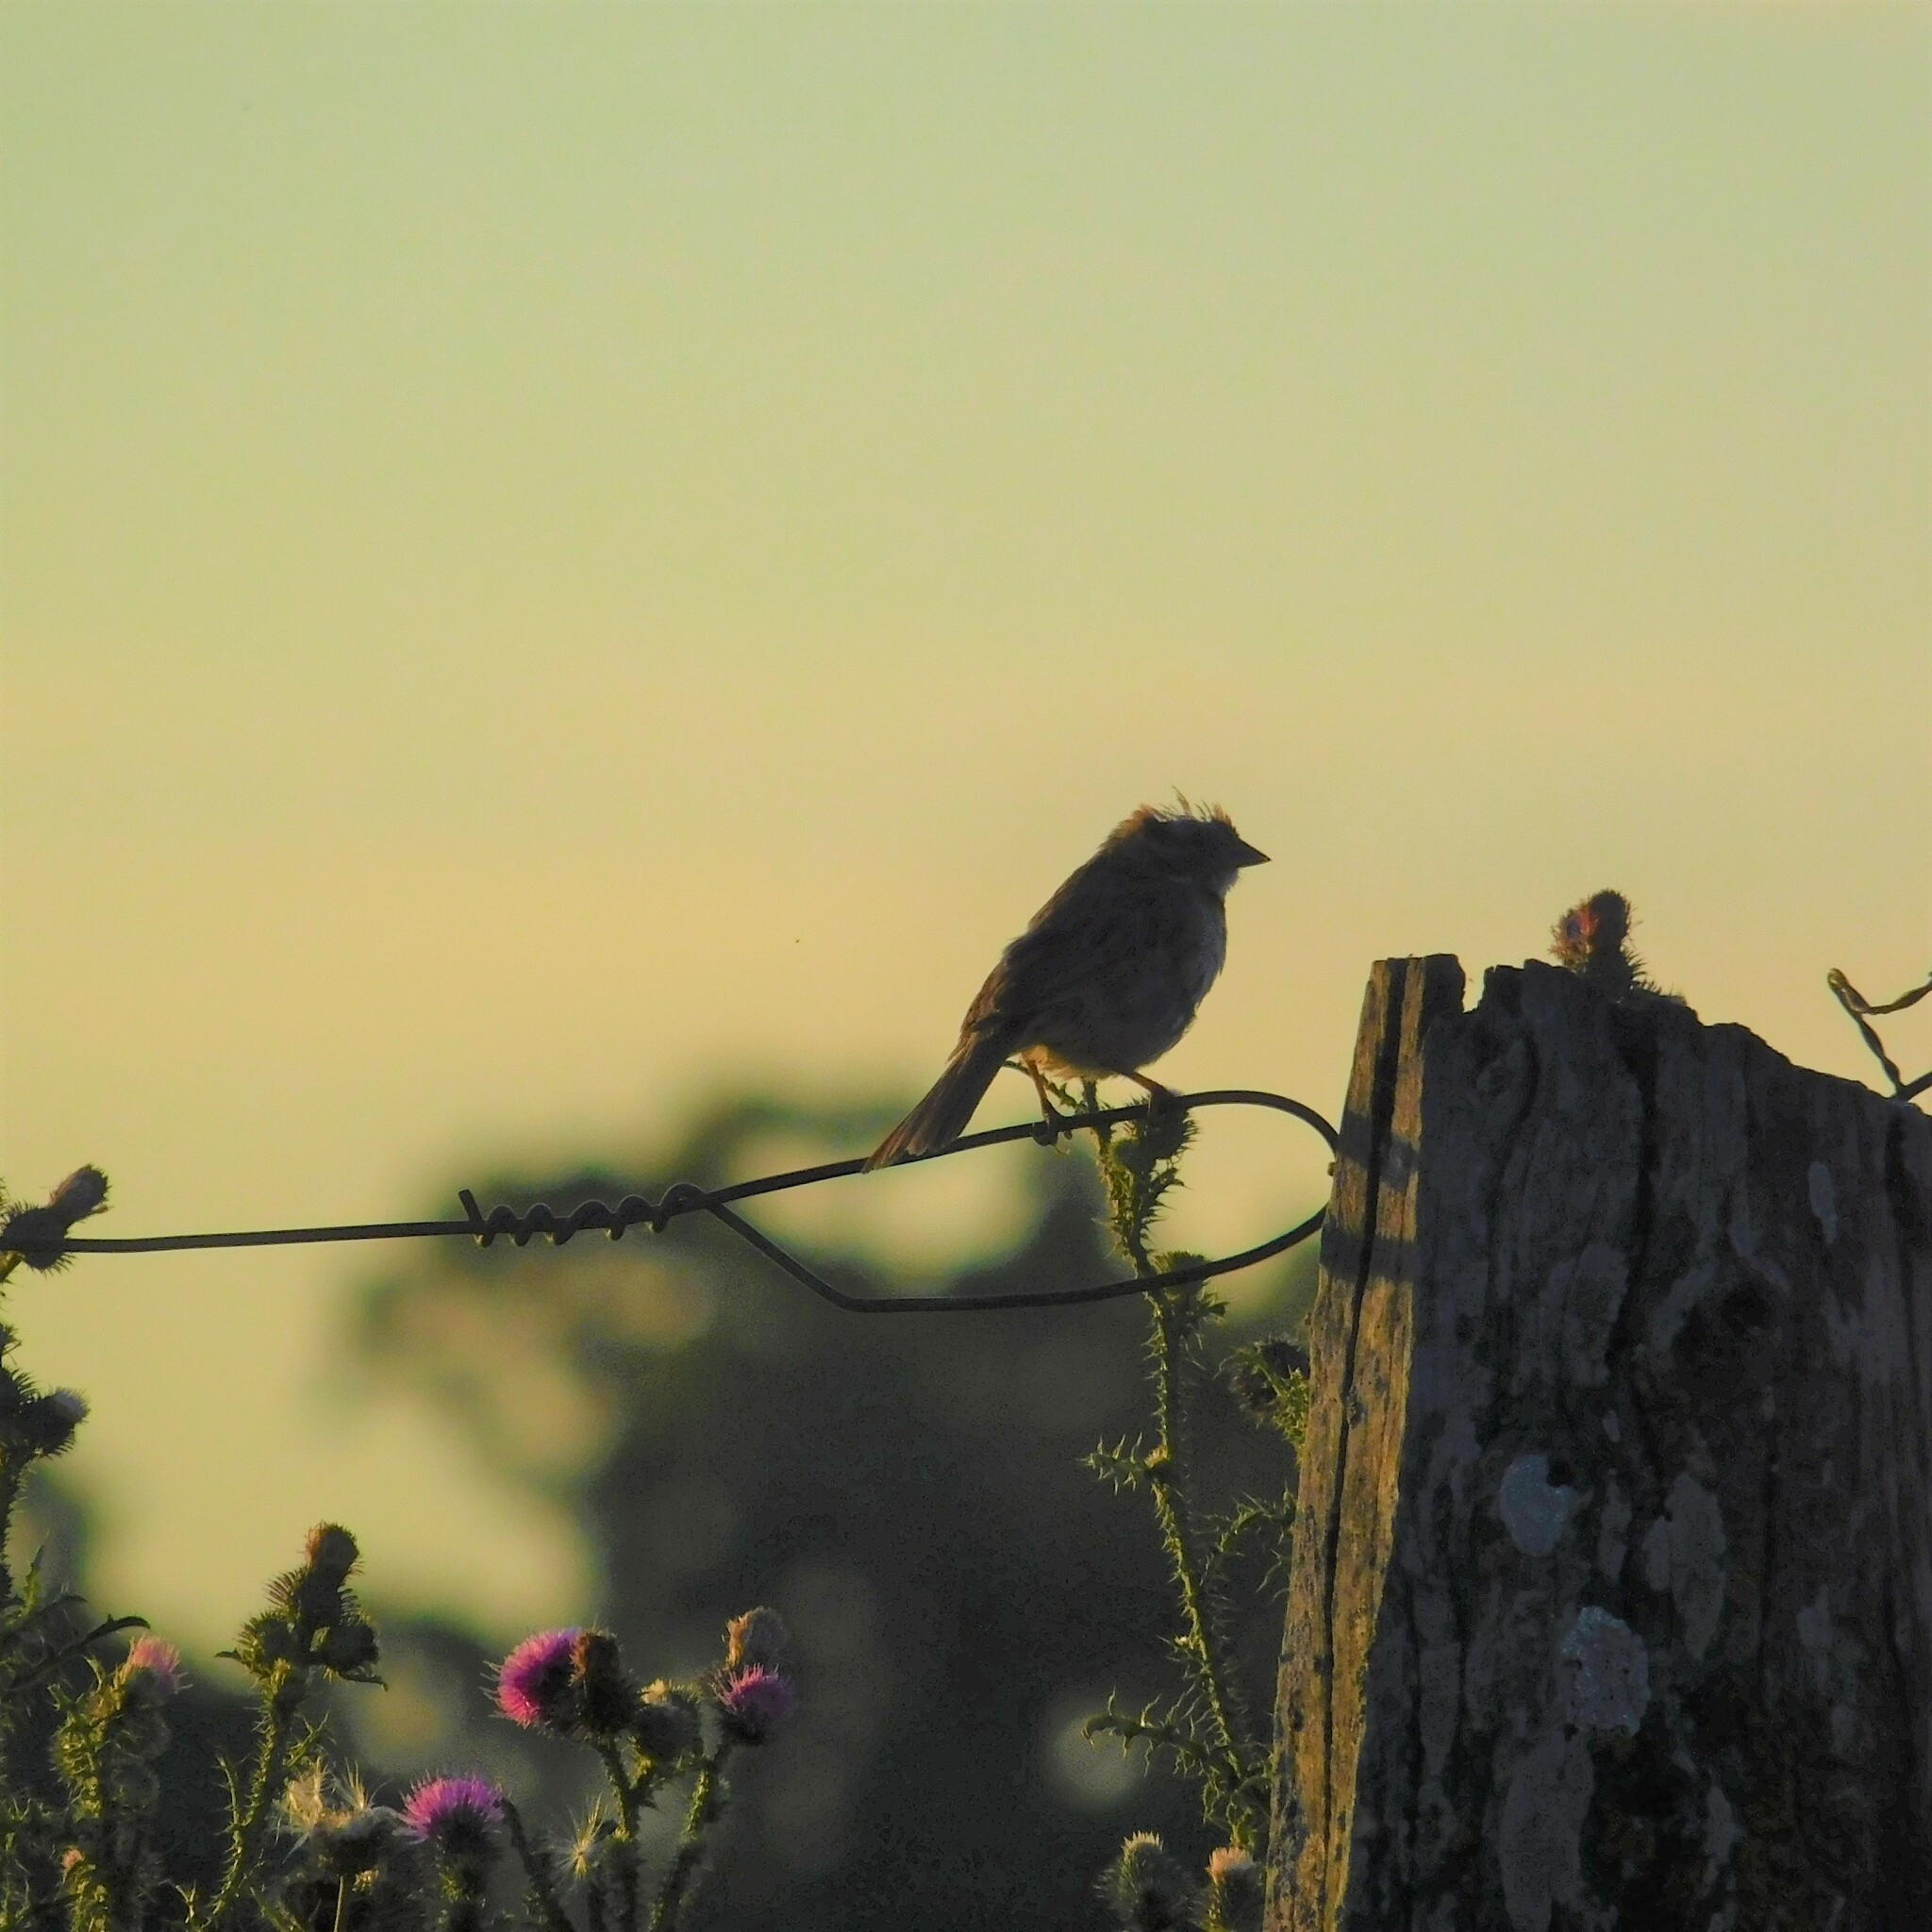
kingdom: Animalia
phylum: Chordata
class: Aves
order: Passeriformes
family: Passerellidae
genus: Zonotrichia
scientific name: Zonotrichia capensis
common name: Rufous-collared sparrow
